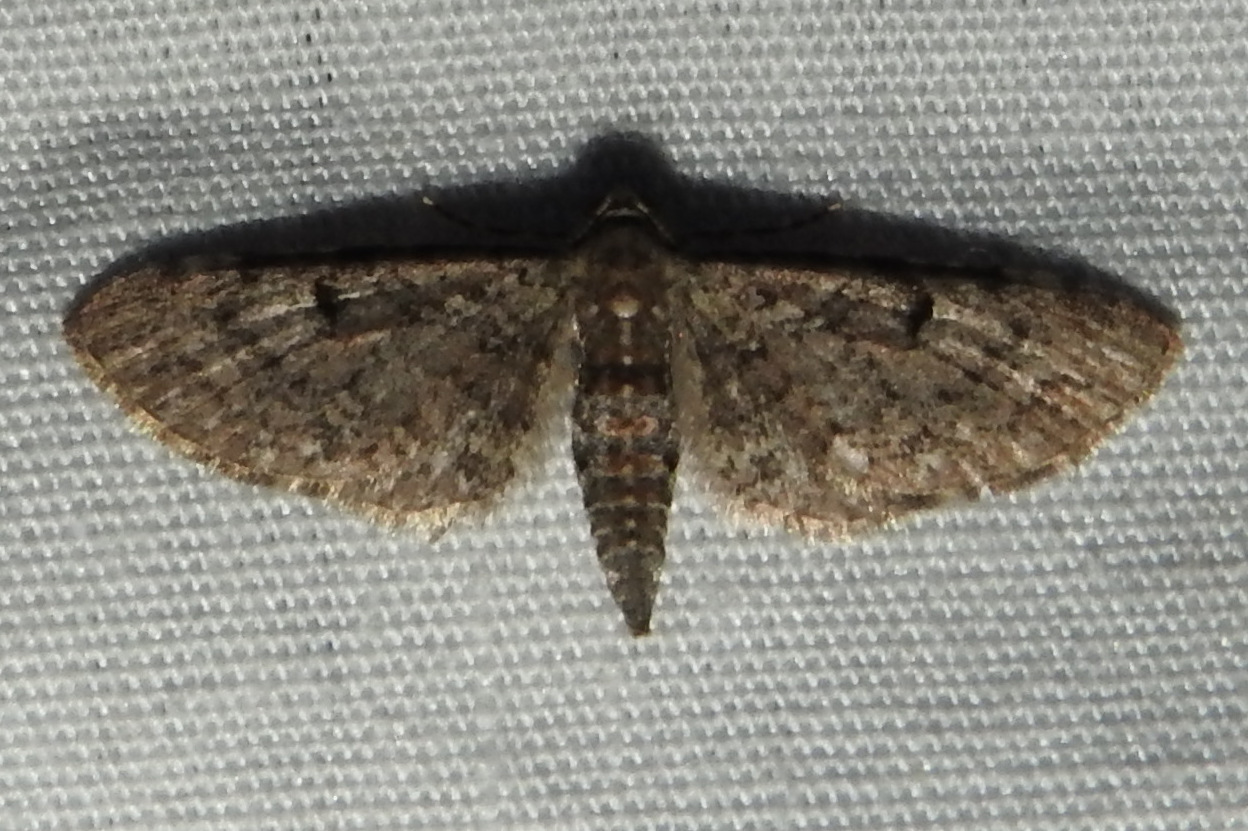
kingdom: Animalia
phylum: Arthropoda
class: Insecta
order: Lepidoptera
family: Geometridae
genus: Eupithecia
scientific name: Eupithecia
